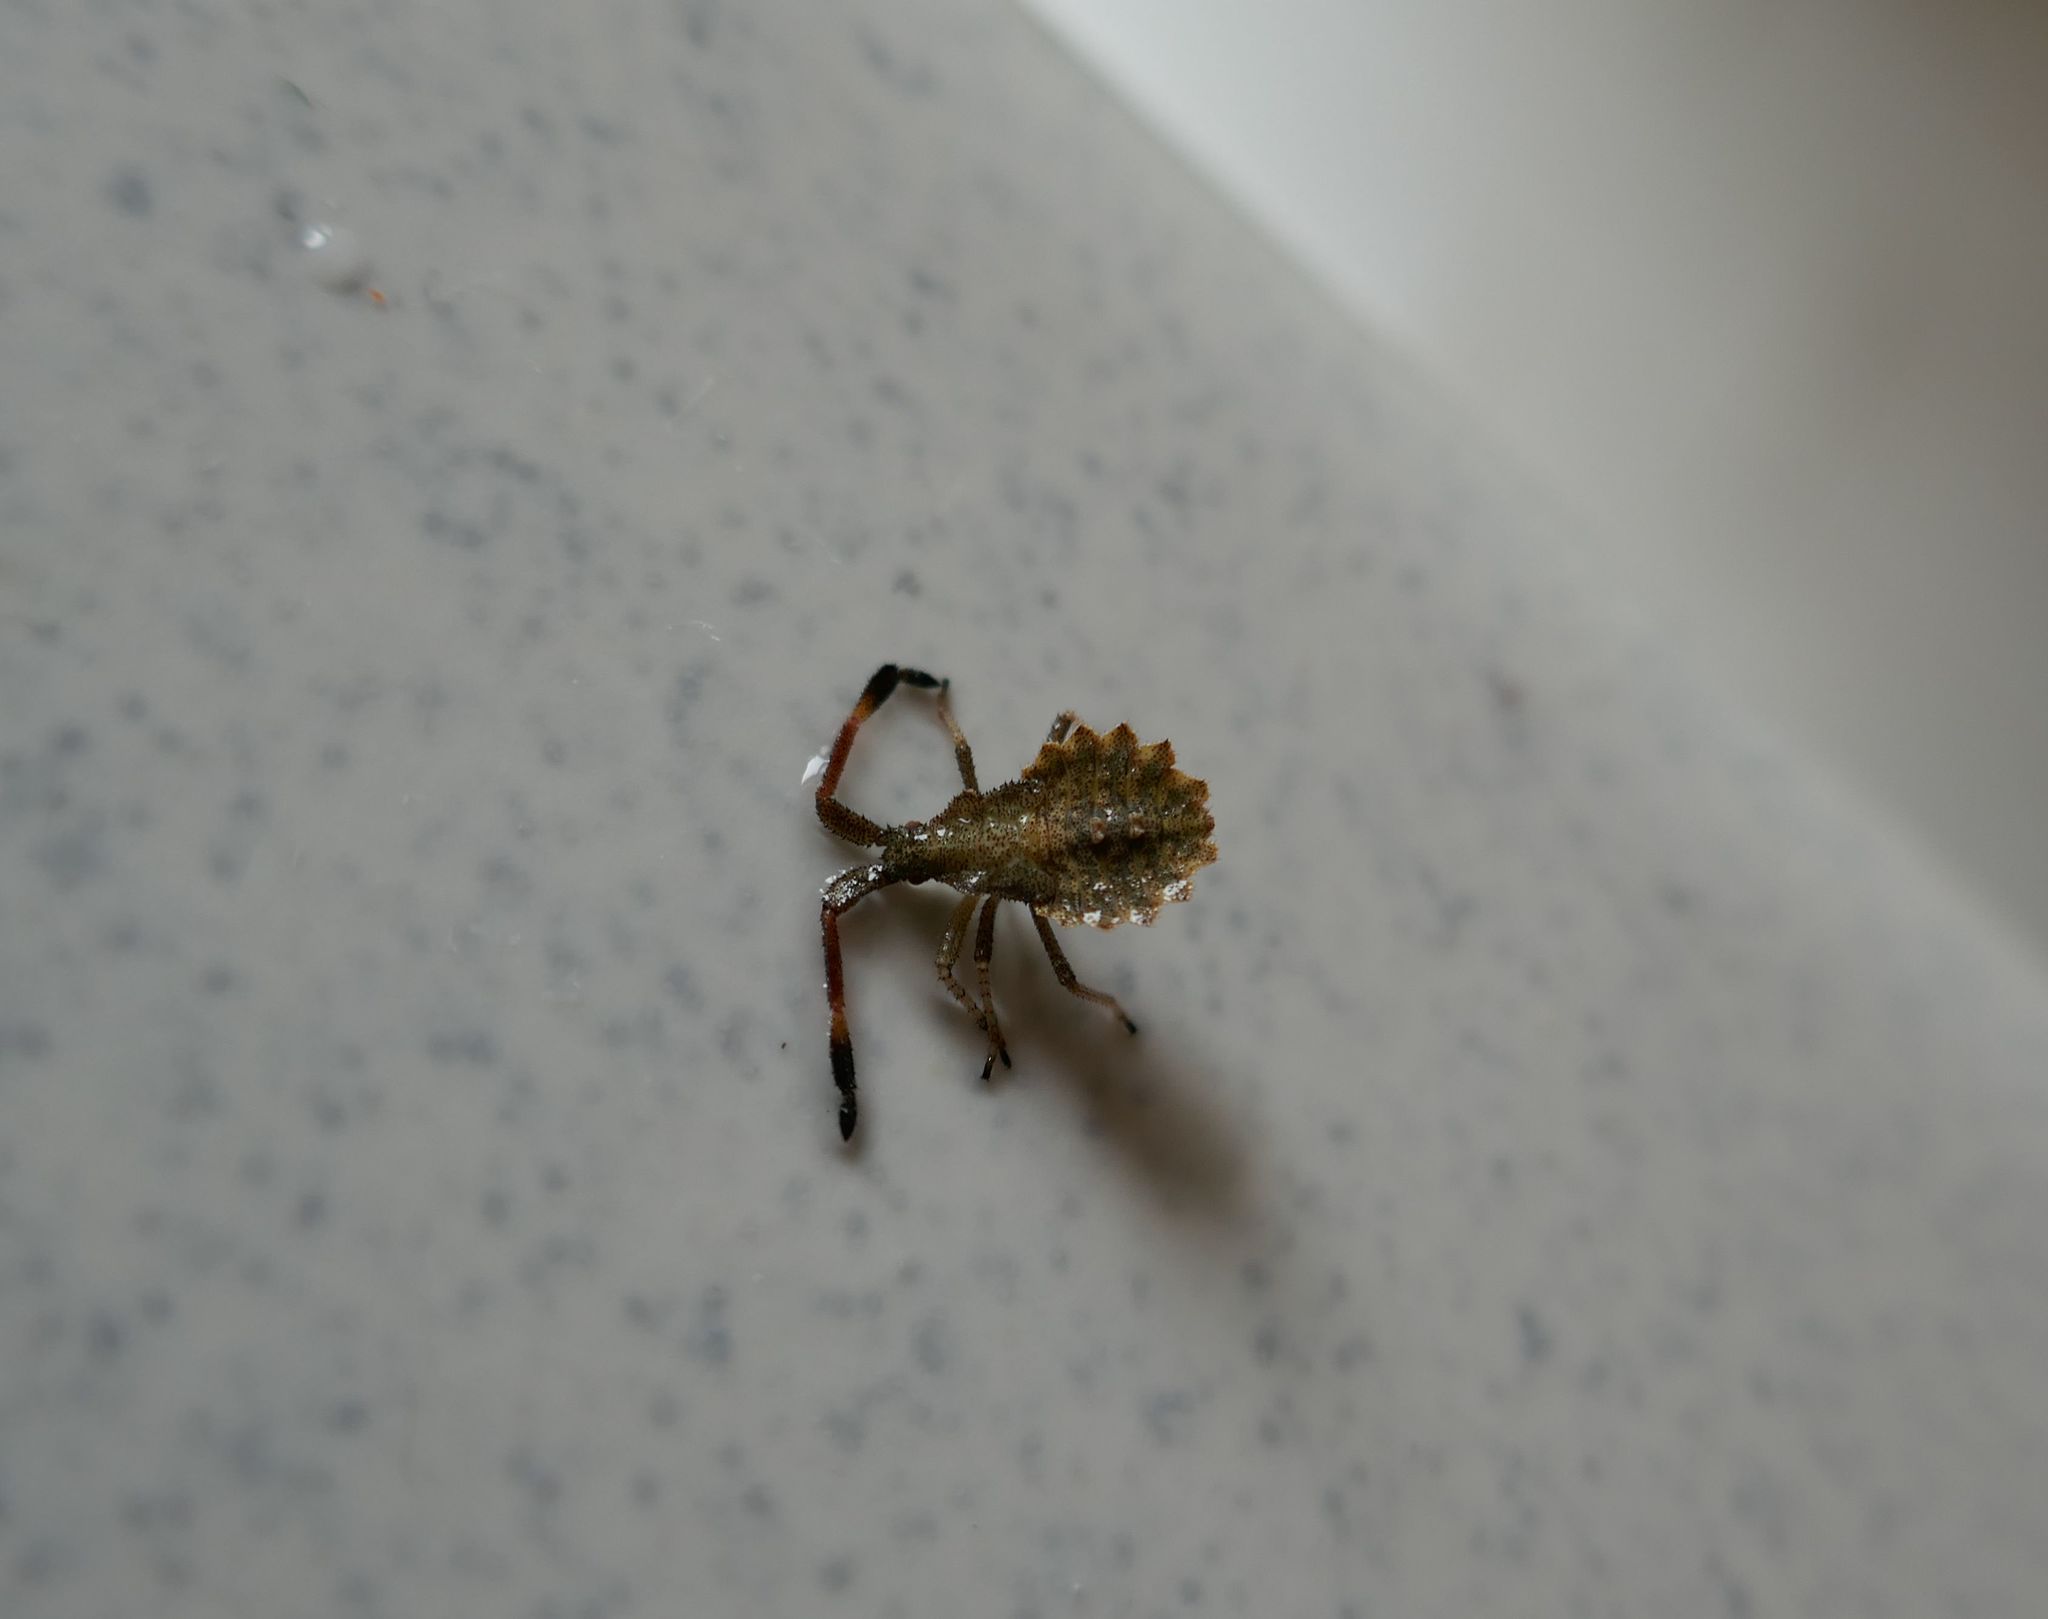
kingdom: Animalia
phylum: Arthropoda
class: Insecta
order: Hemiptera
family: Coreidae
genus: Coreus
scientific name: Coreus marginatus
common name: Dock bug
